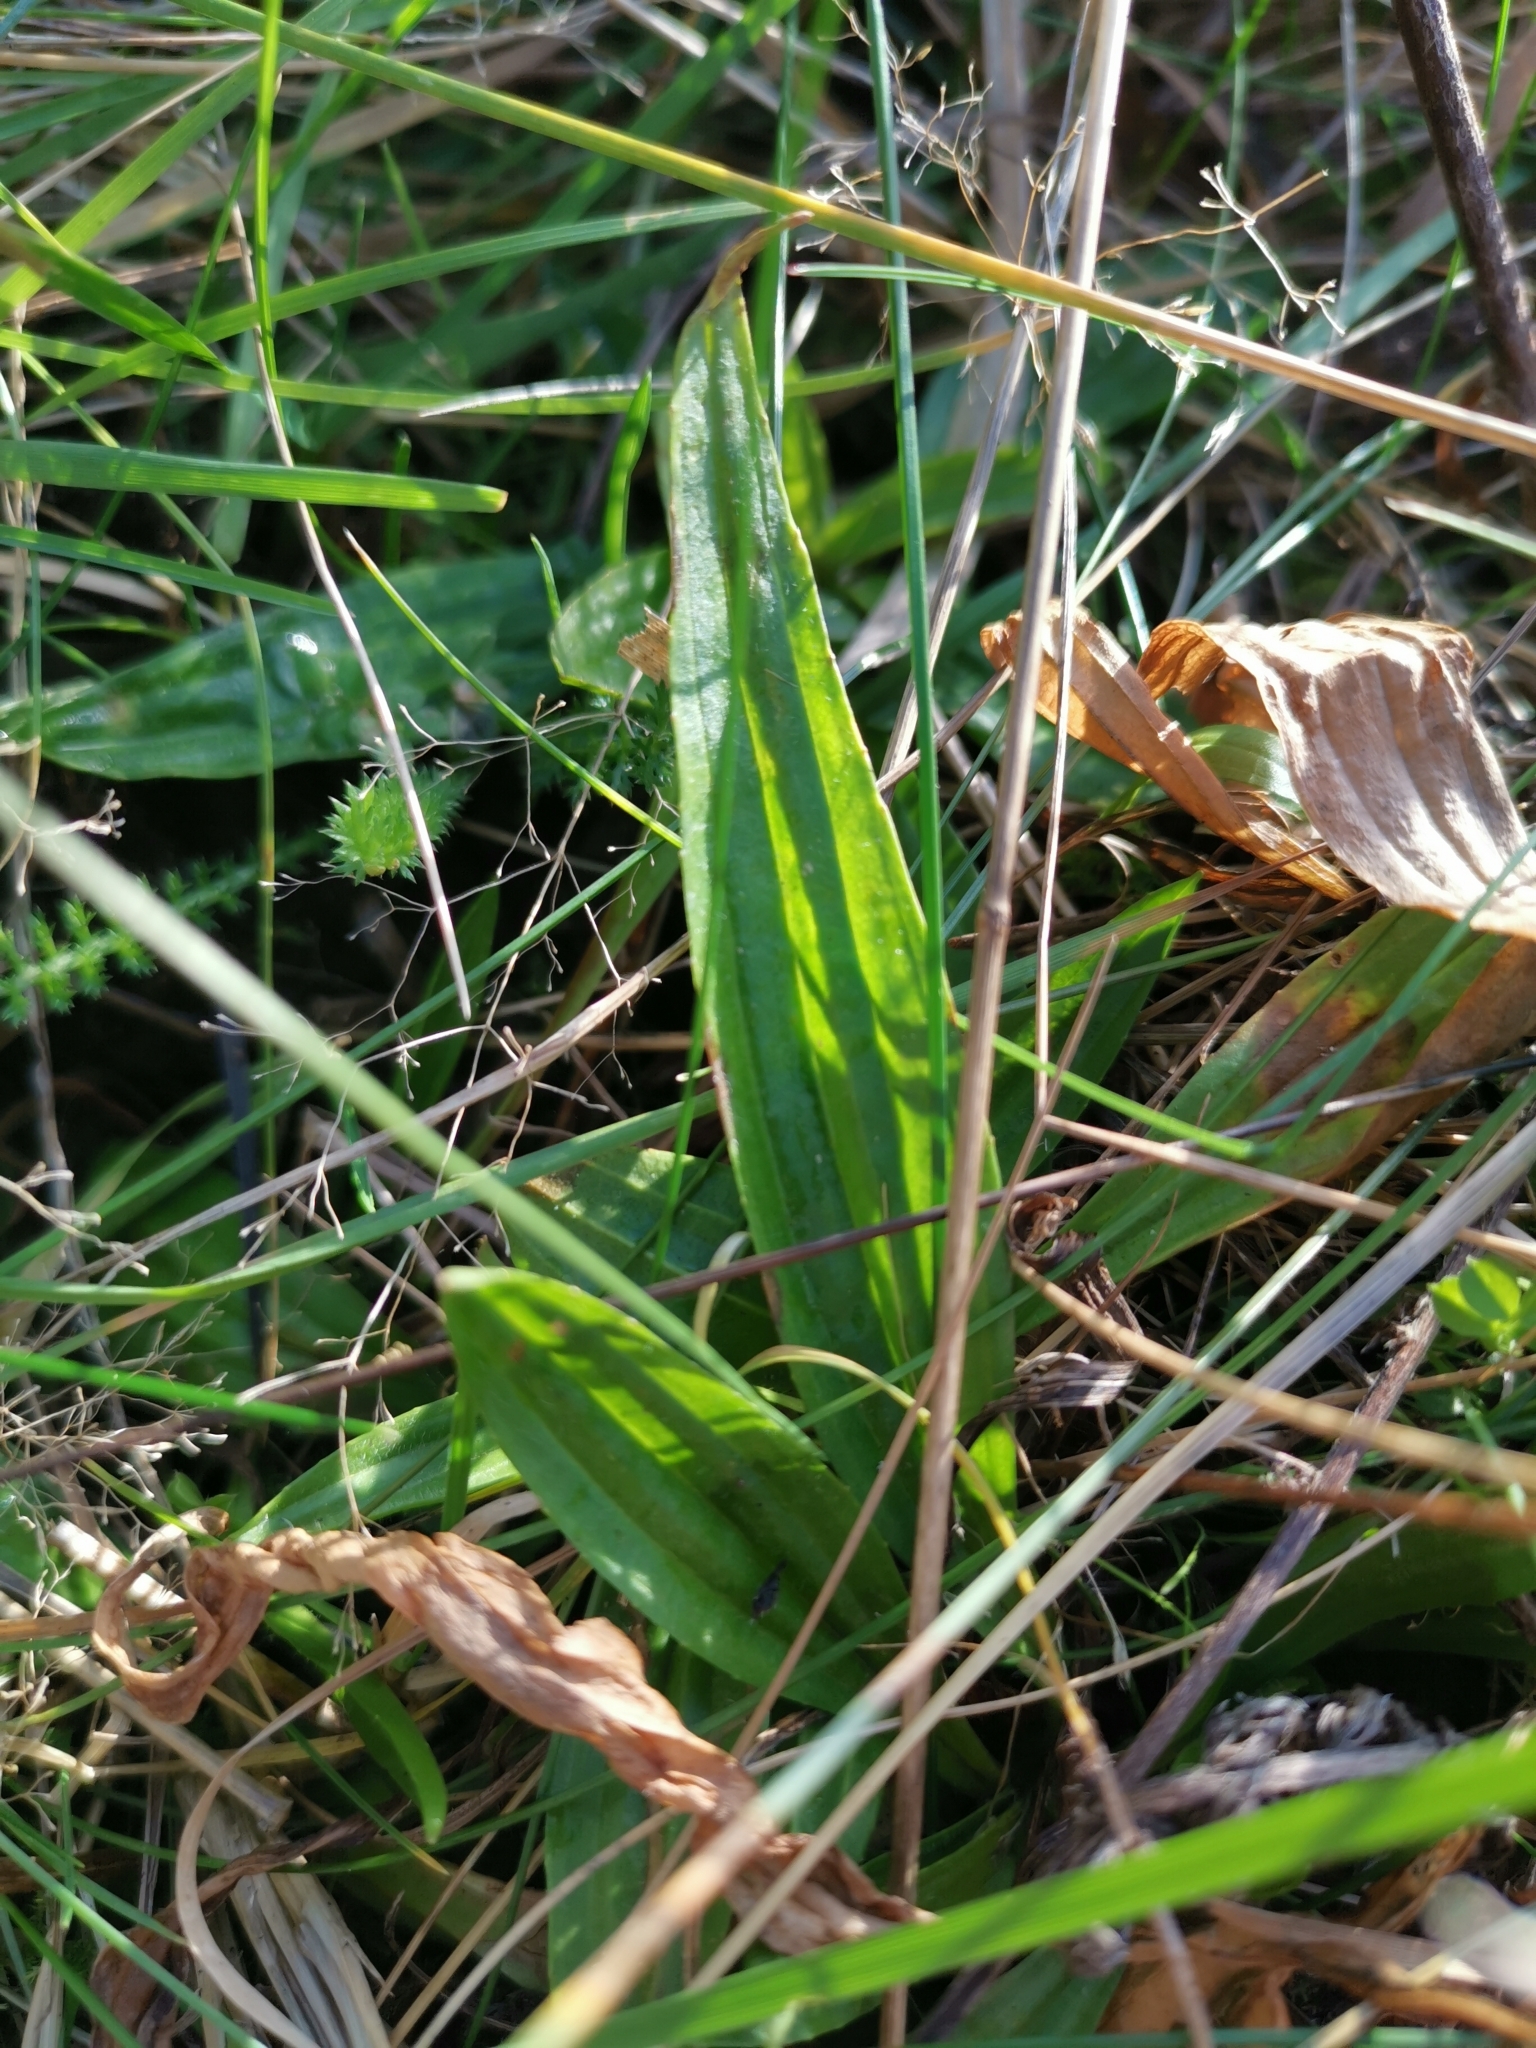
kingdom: Plantae
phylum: Tracheophyta
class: Magnoliopsida
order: Lamiales
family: Plantaginaceae
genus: Plantago
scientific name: Plantago lanceolata
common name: Ribwort plantain
